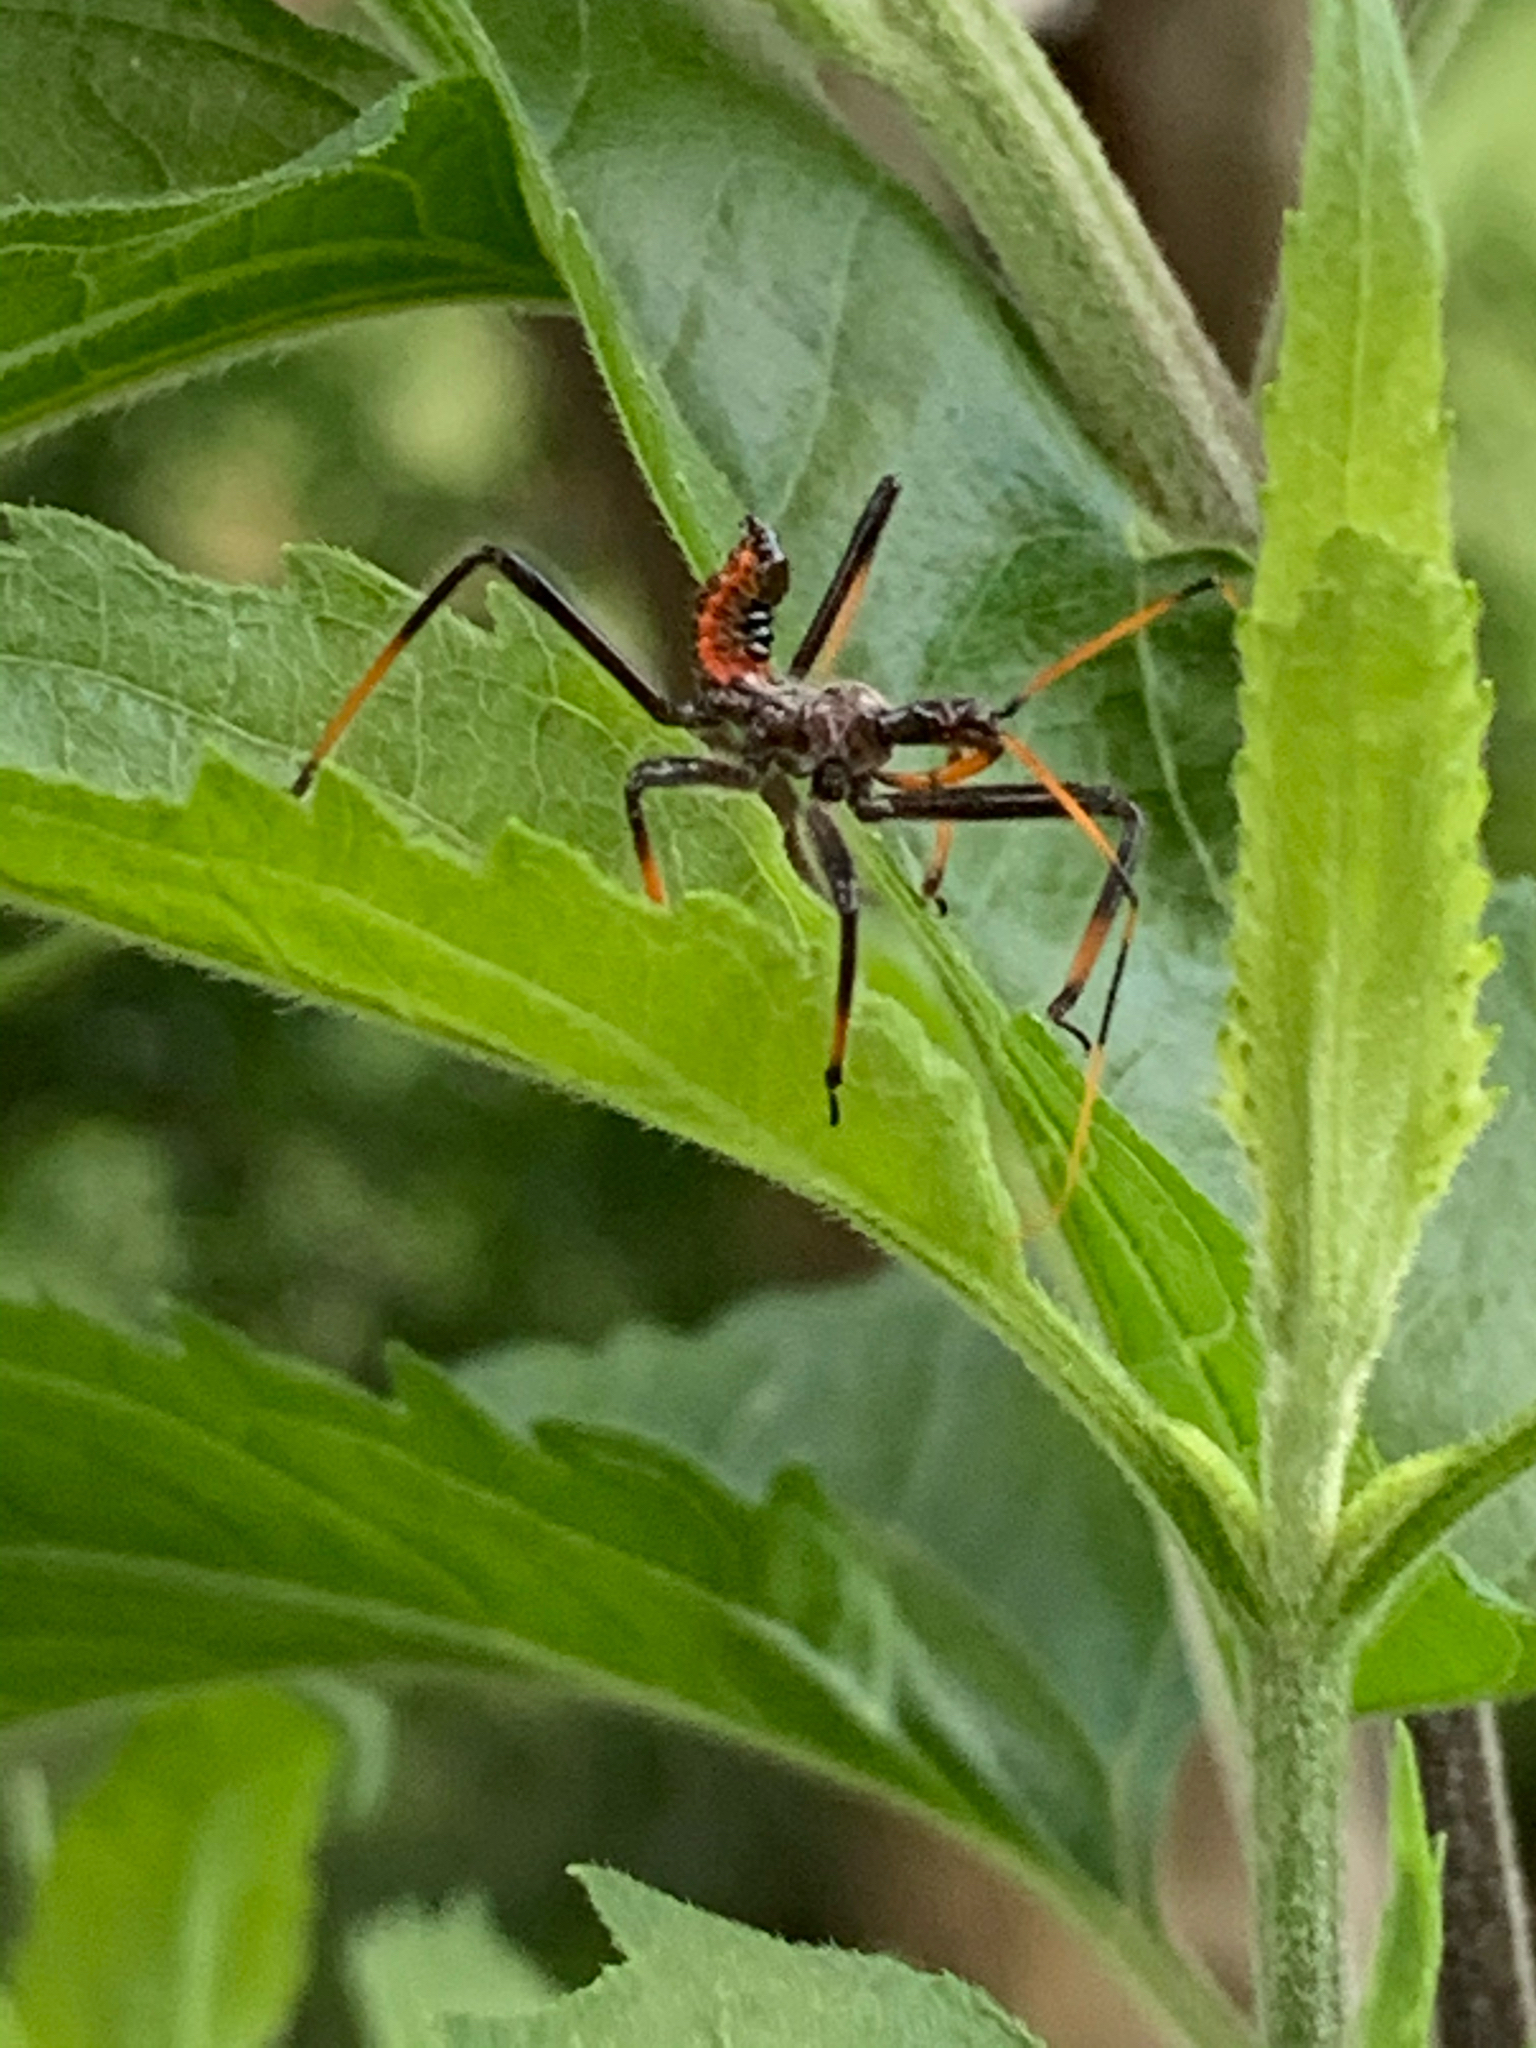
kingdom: Animalia
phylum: Arthropoda
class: Insecta
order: Hemiptera
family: Reduviidae
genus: Arilus
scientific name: Arilus cristatus
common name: North american wheel bug
